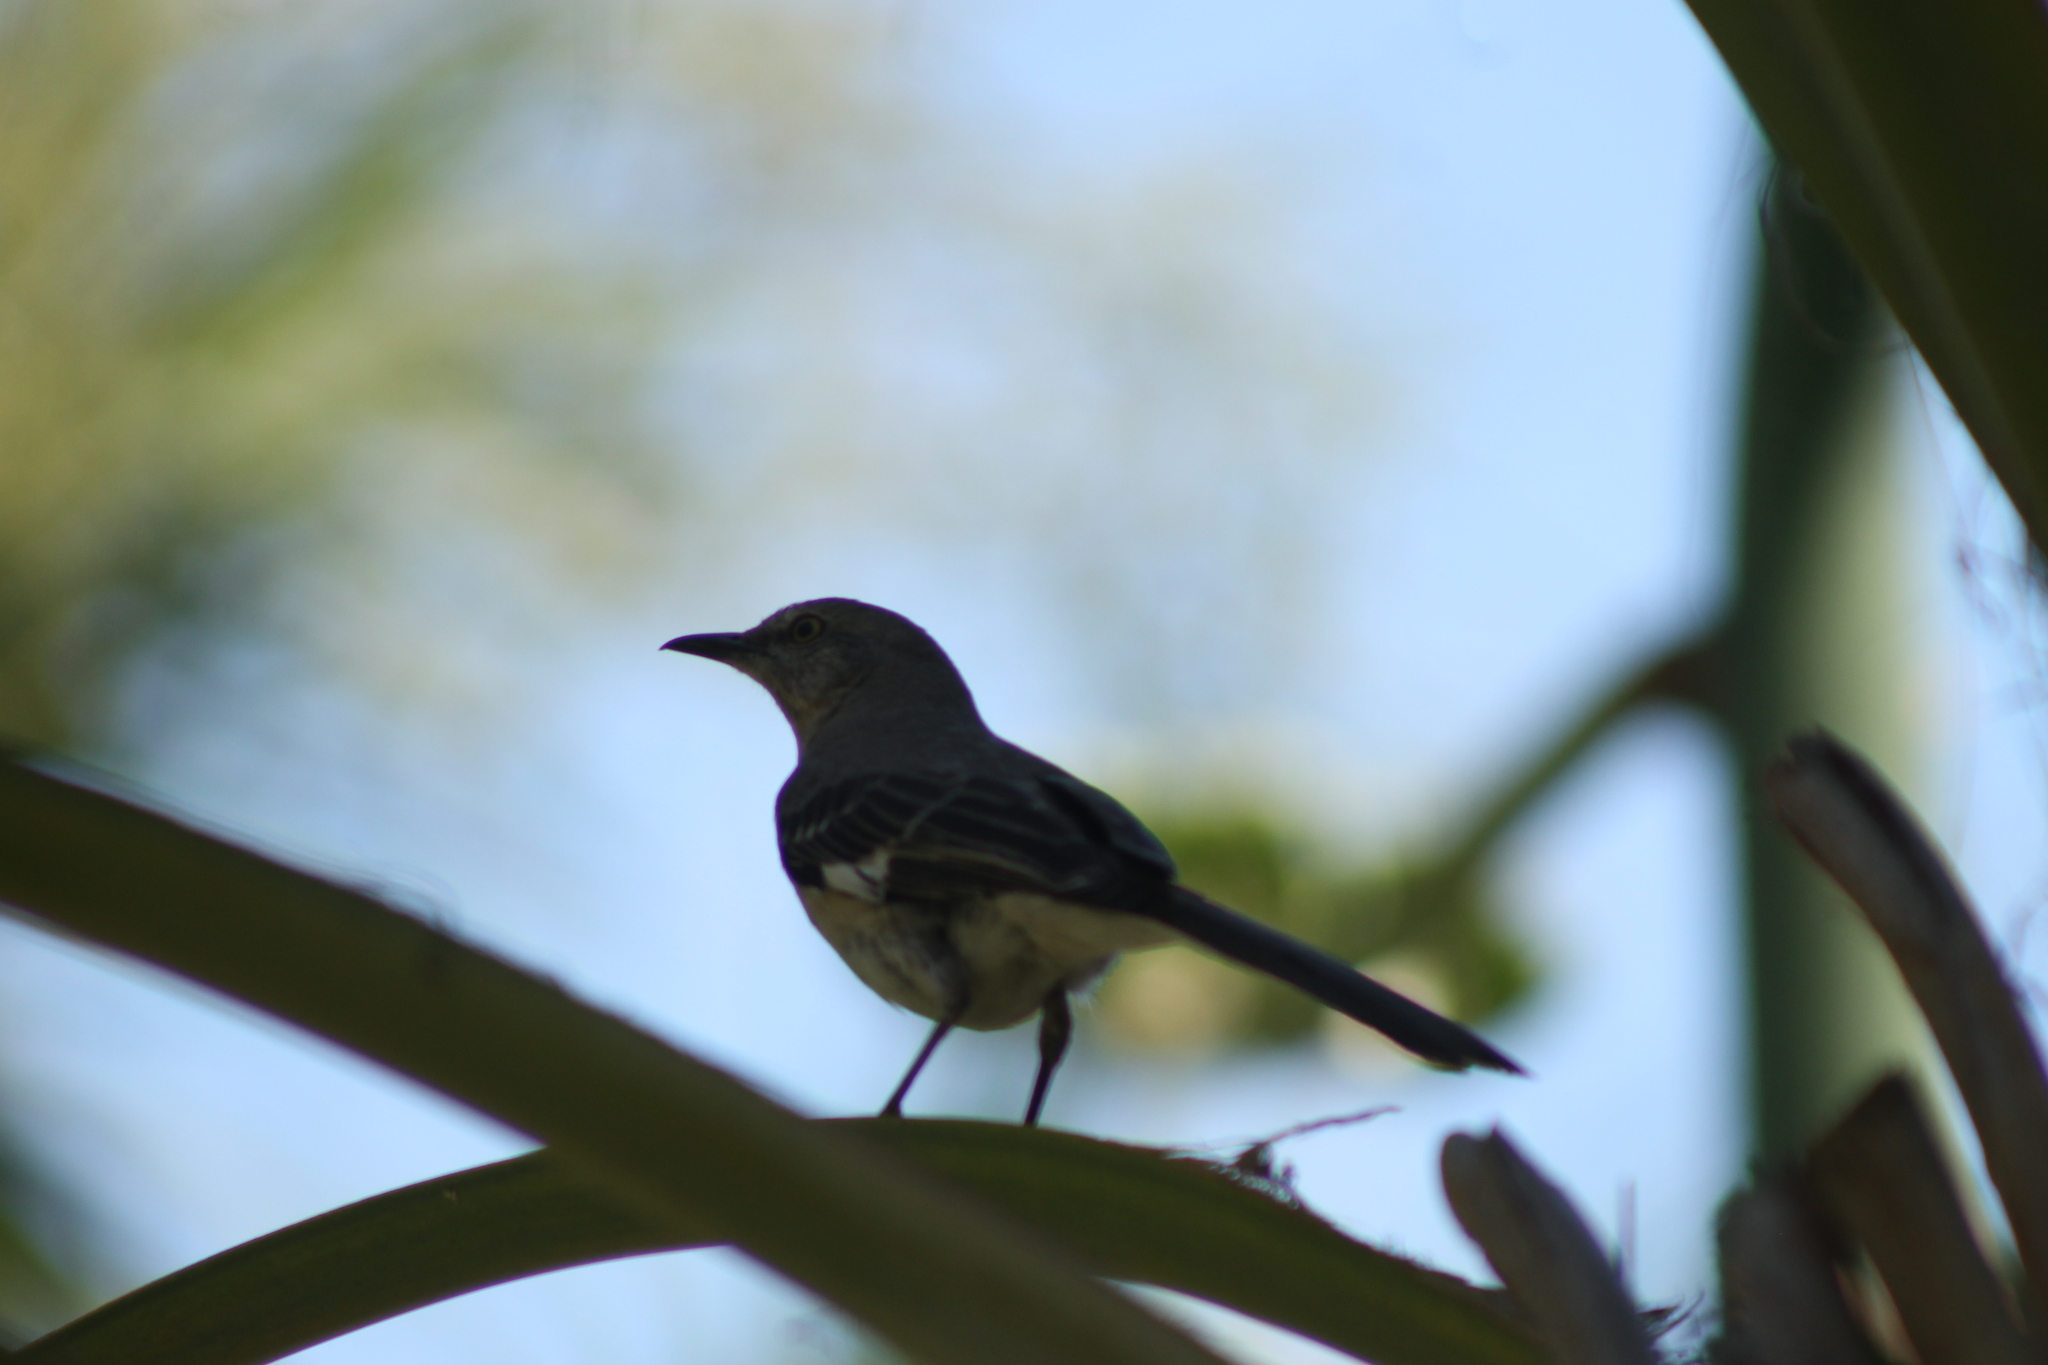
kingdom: Animalia
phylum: Chordata
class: Aves
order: Passeriformes
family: Mimidae
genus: Mimus
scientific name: Mimus polyglottos
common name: Northern mockingbird
